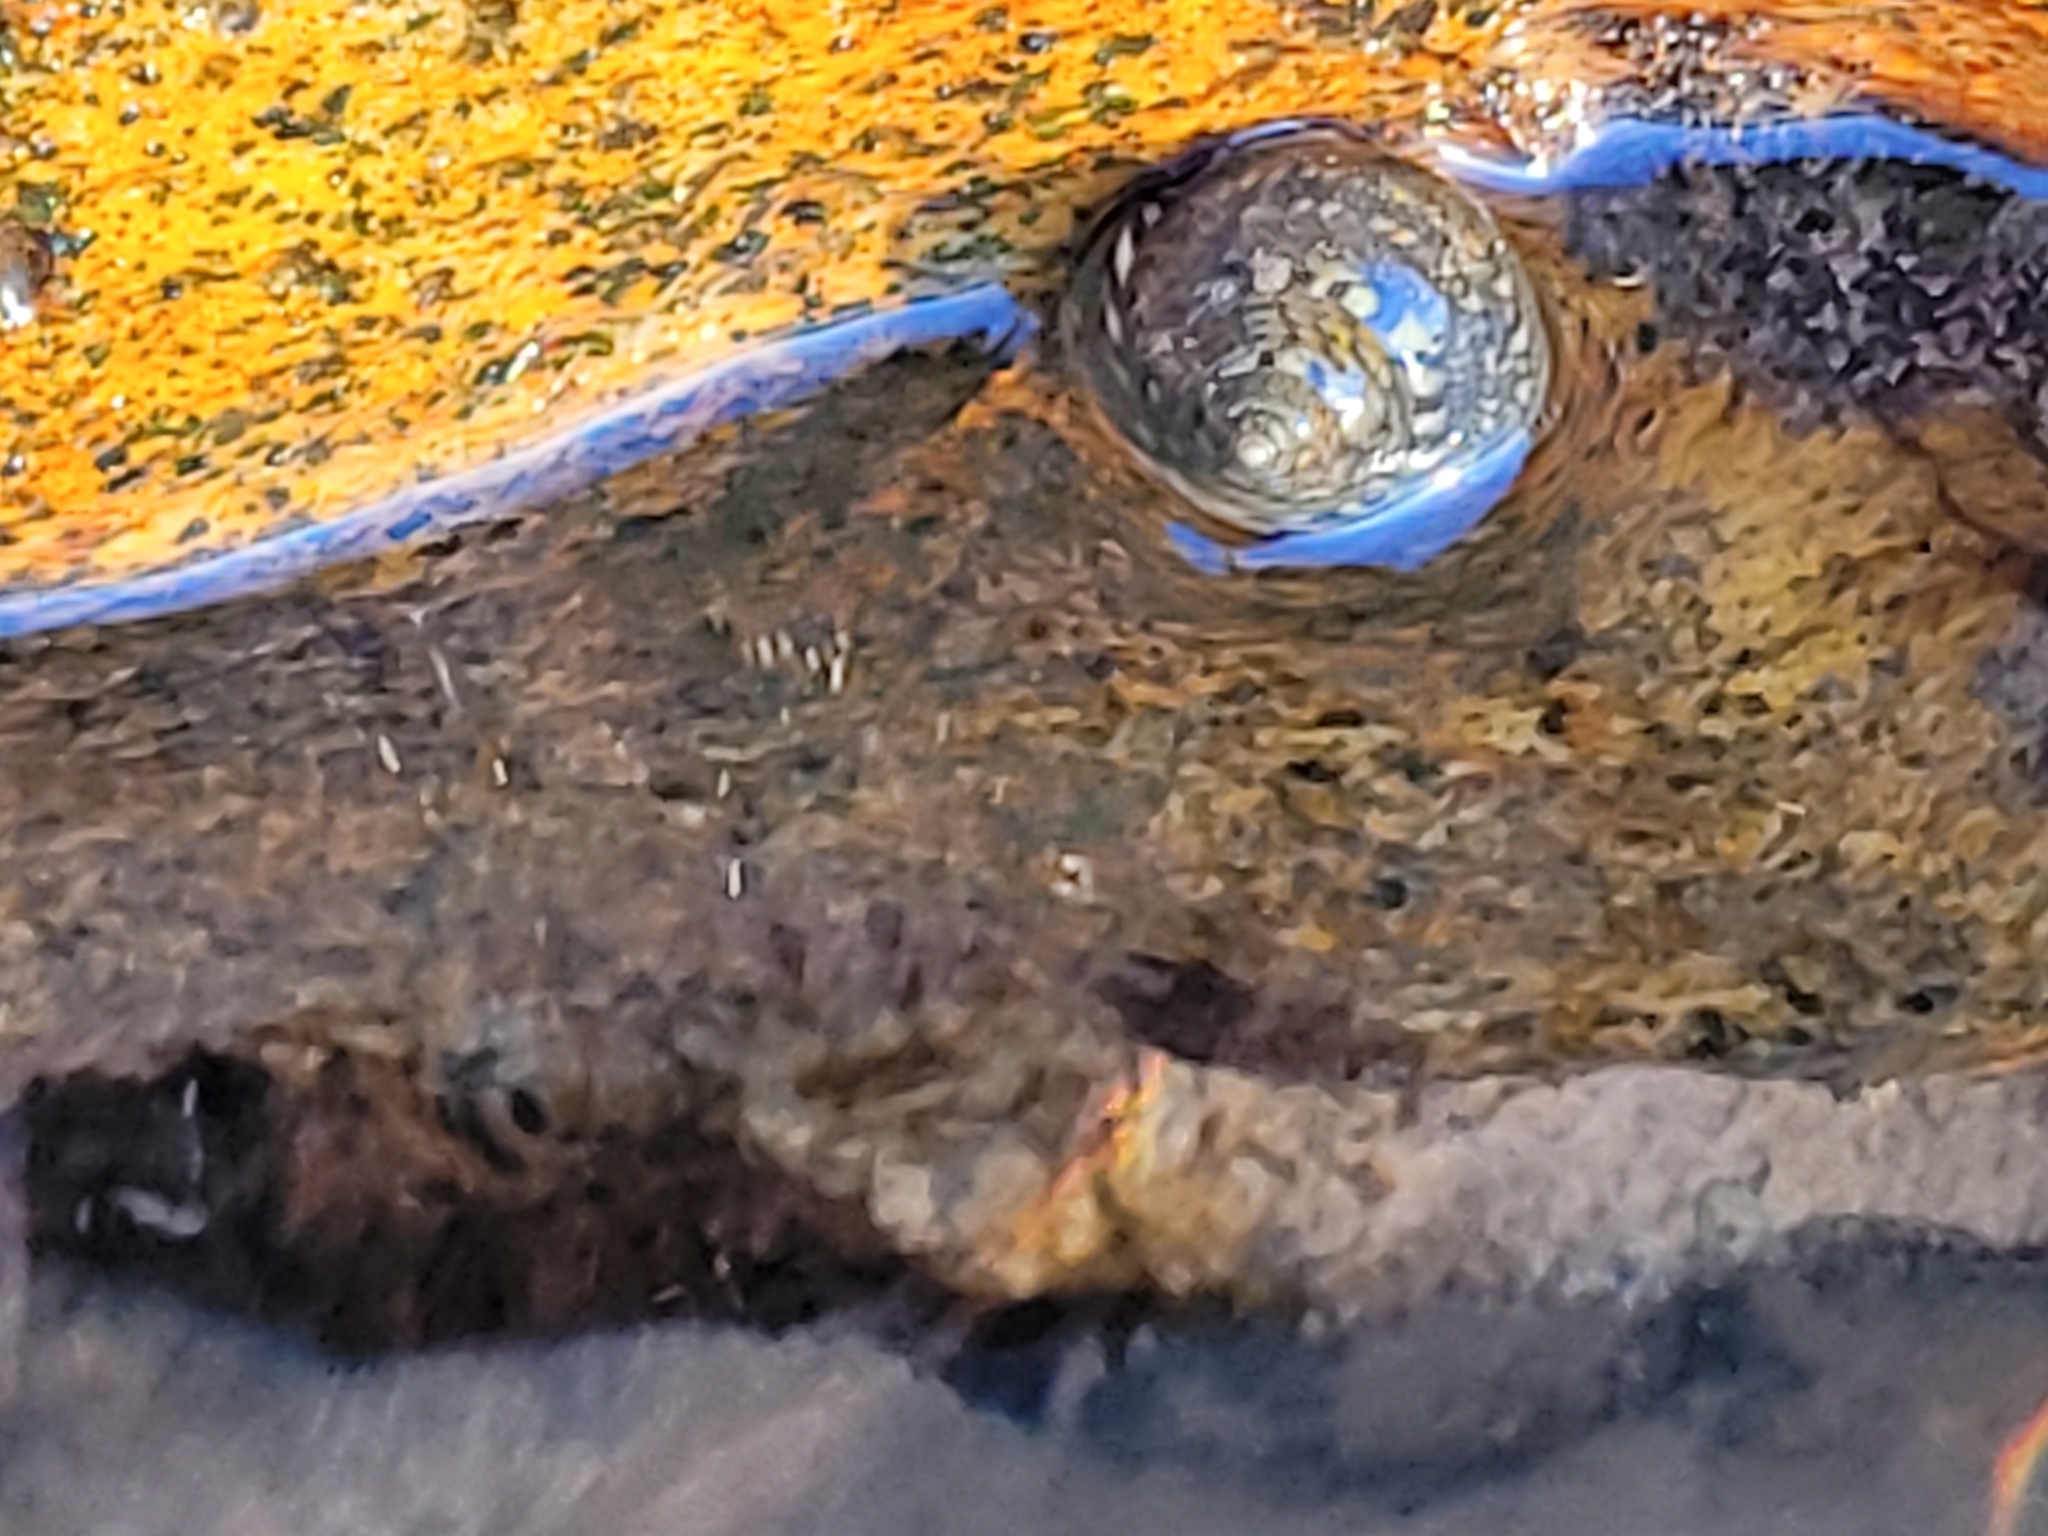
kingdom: Animalia
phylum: Mollusca
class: Gastropoda
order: Trochida
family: Trochidae
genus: Phorcus
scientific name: Phorcus articulatus
